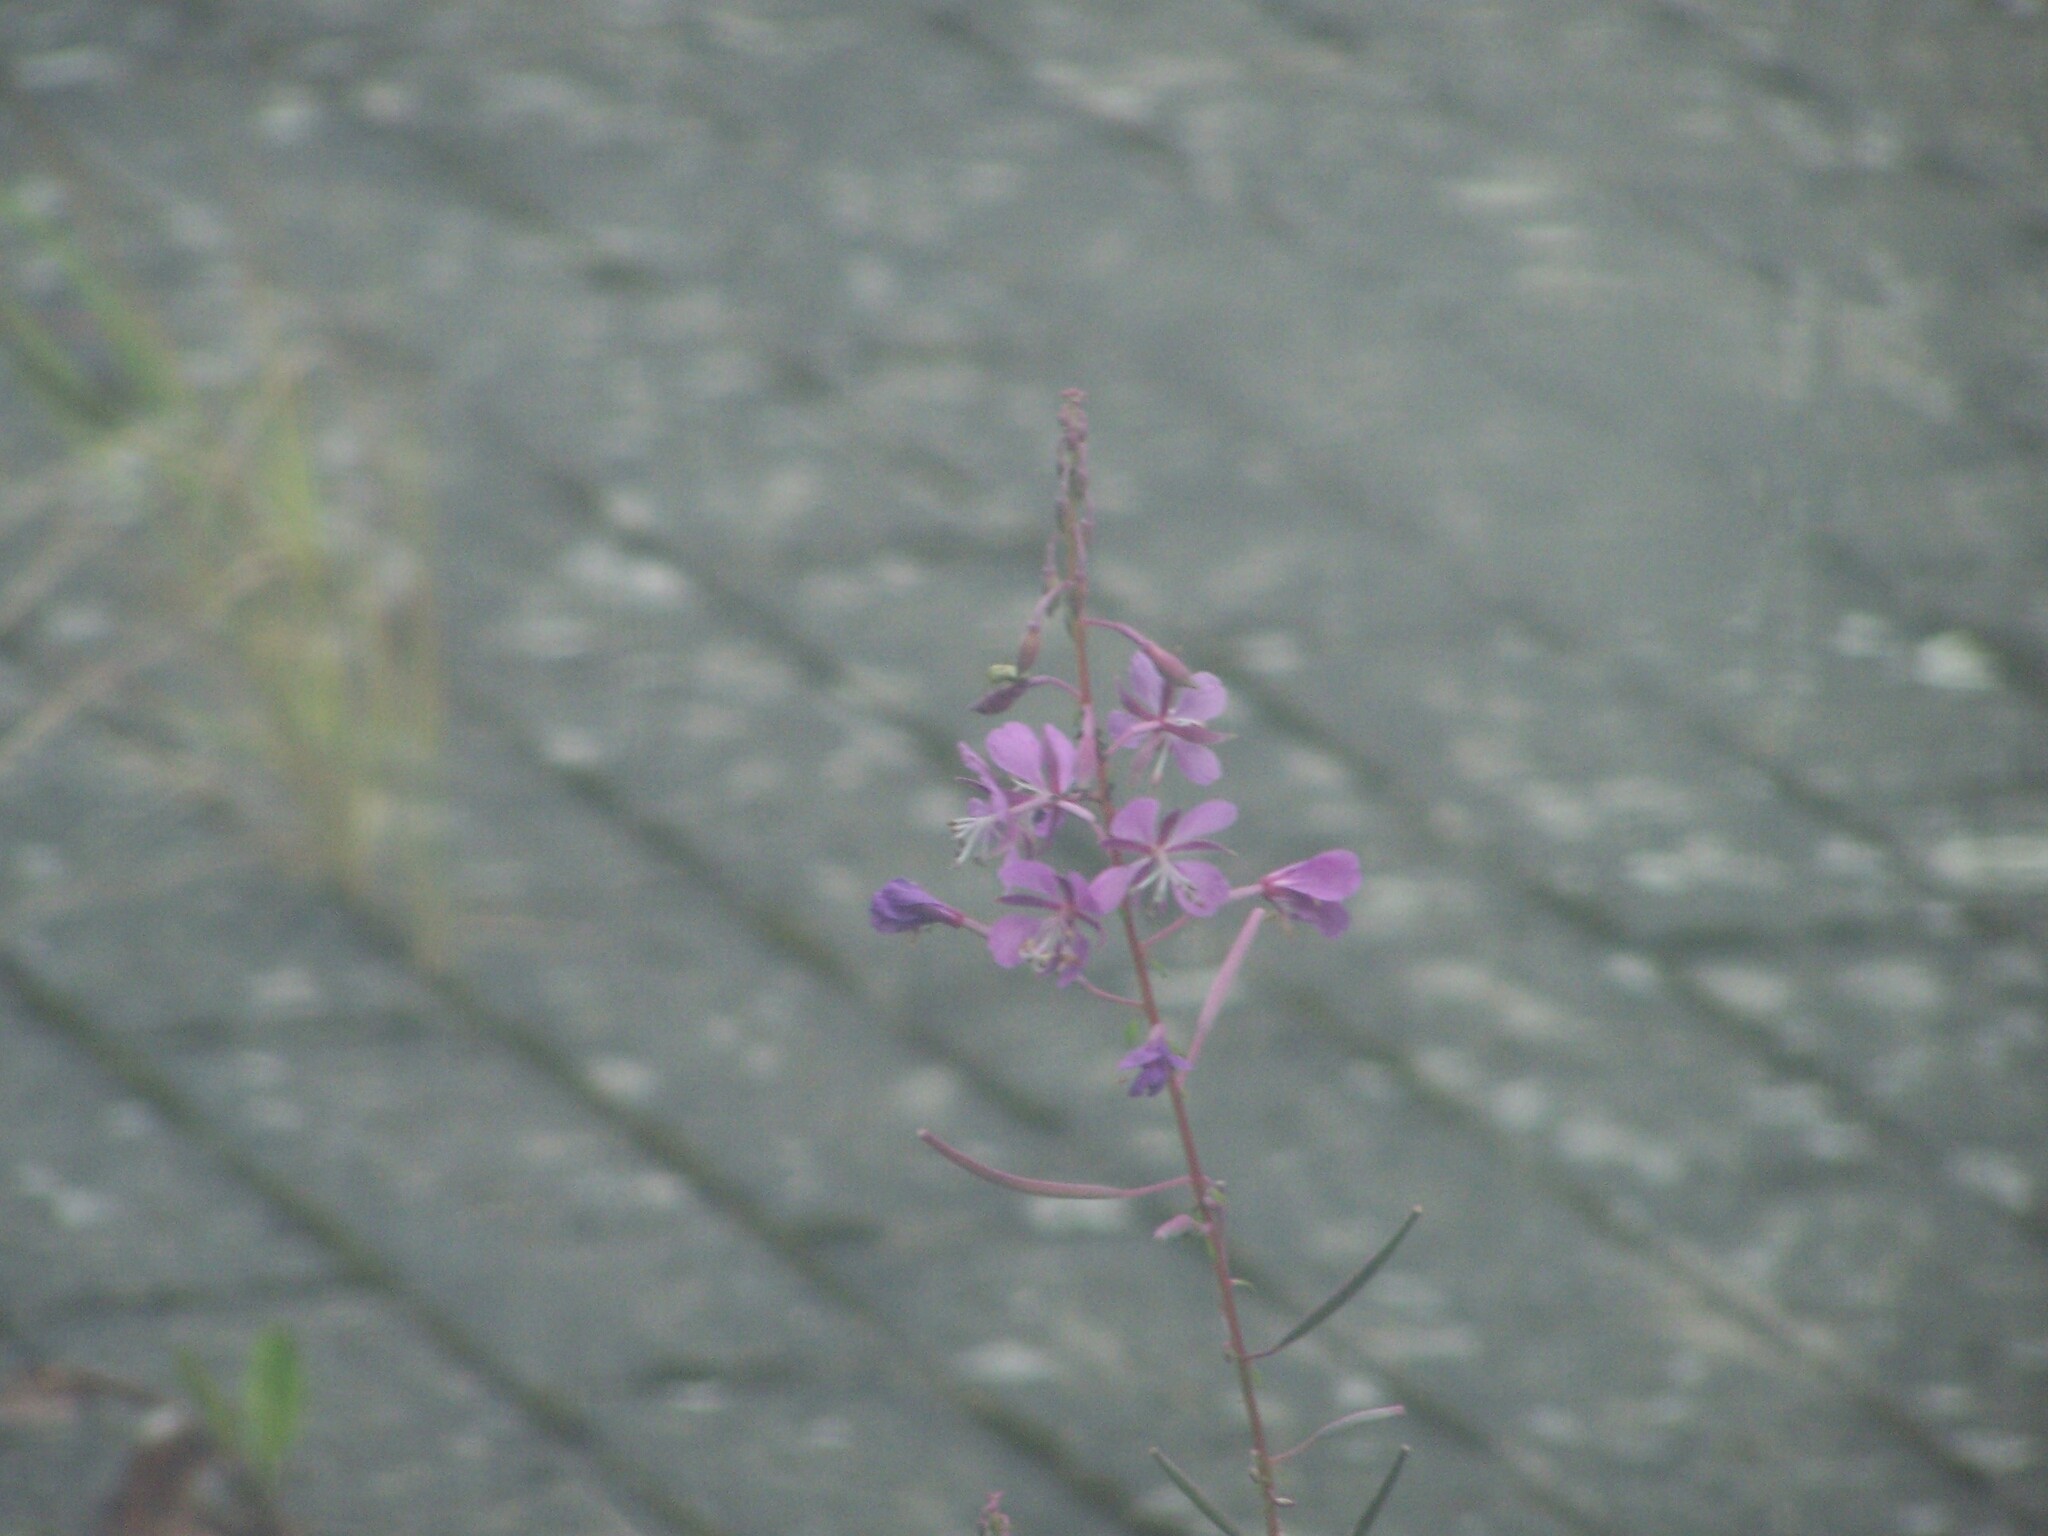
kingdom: Plantae
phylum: Tracheophyta
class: Magnoliopsida
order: Myrtales
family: Onagraceae
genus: Chamaenerion
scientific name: Chamaenerion angustifolium
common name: Fireweed
